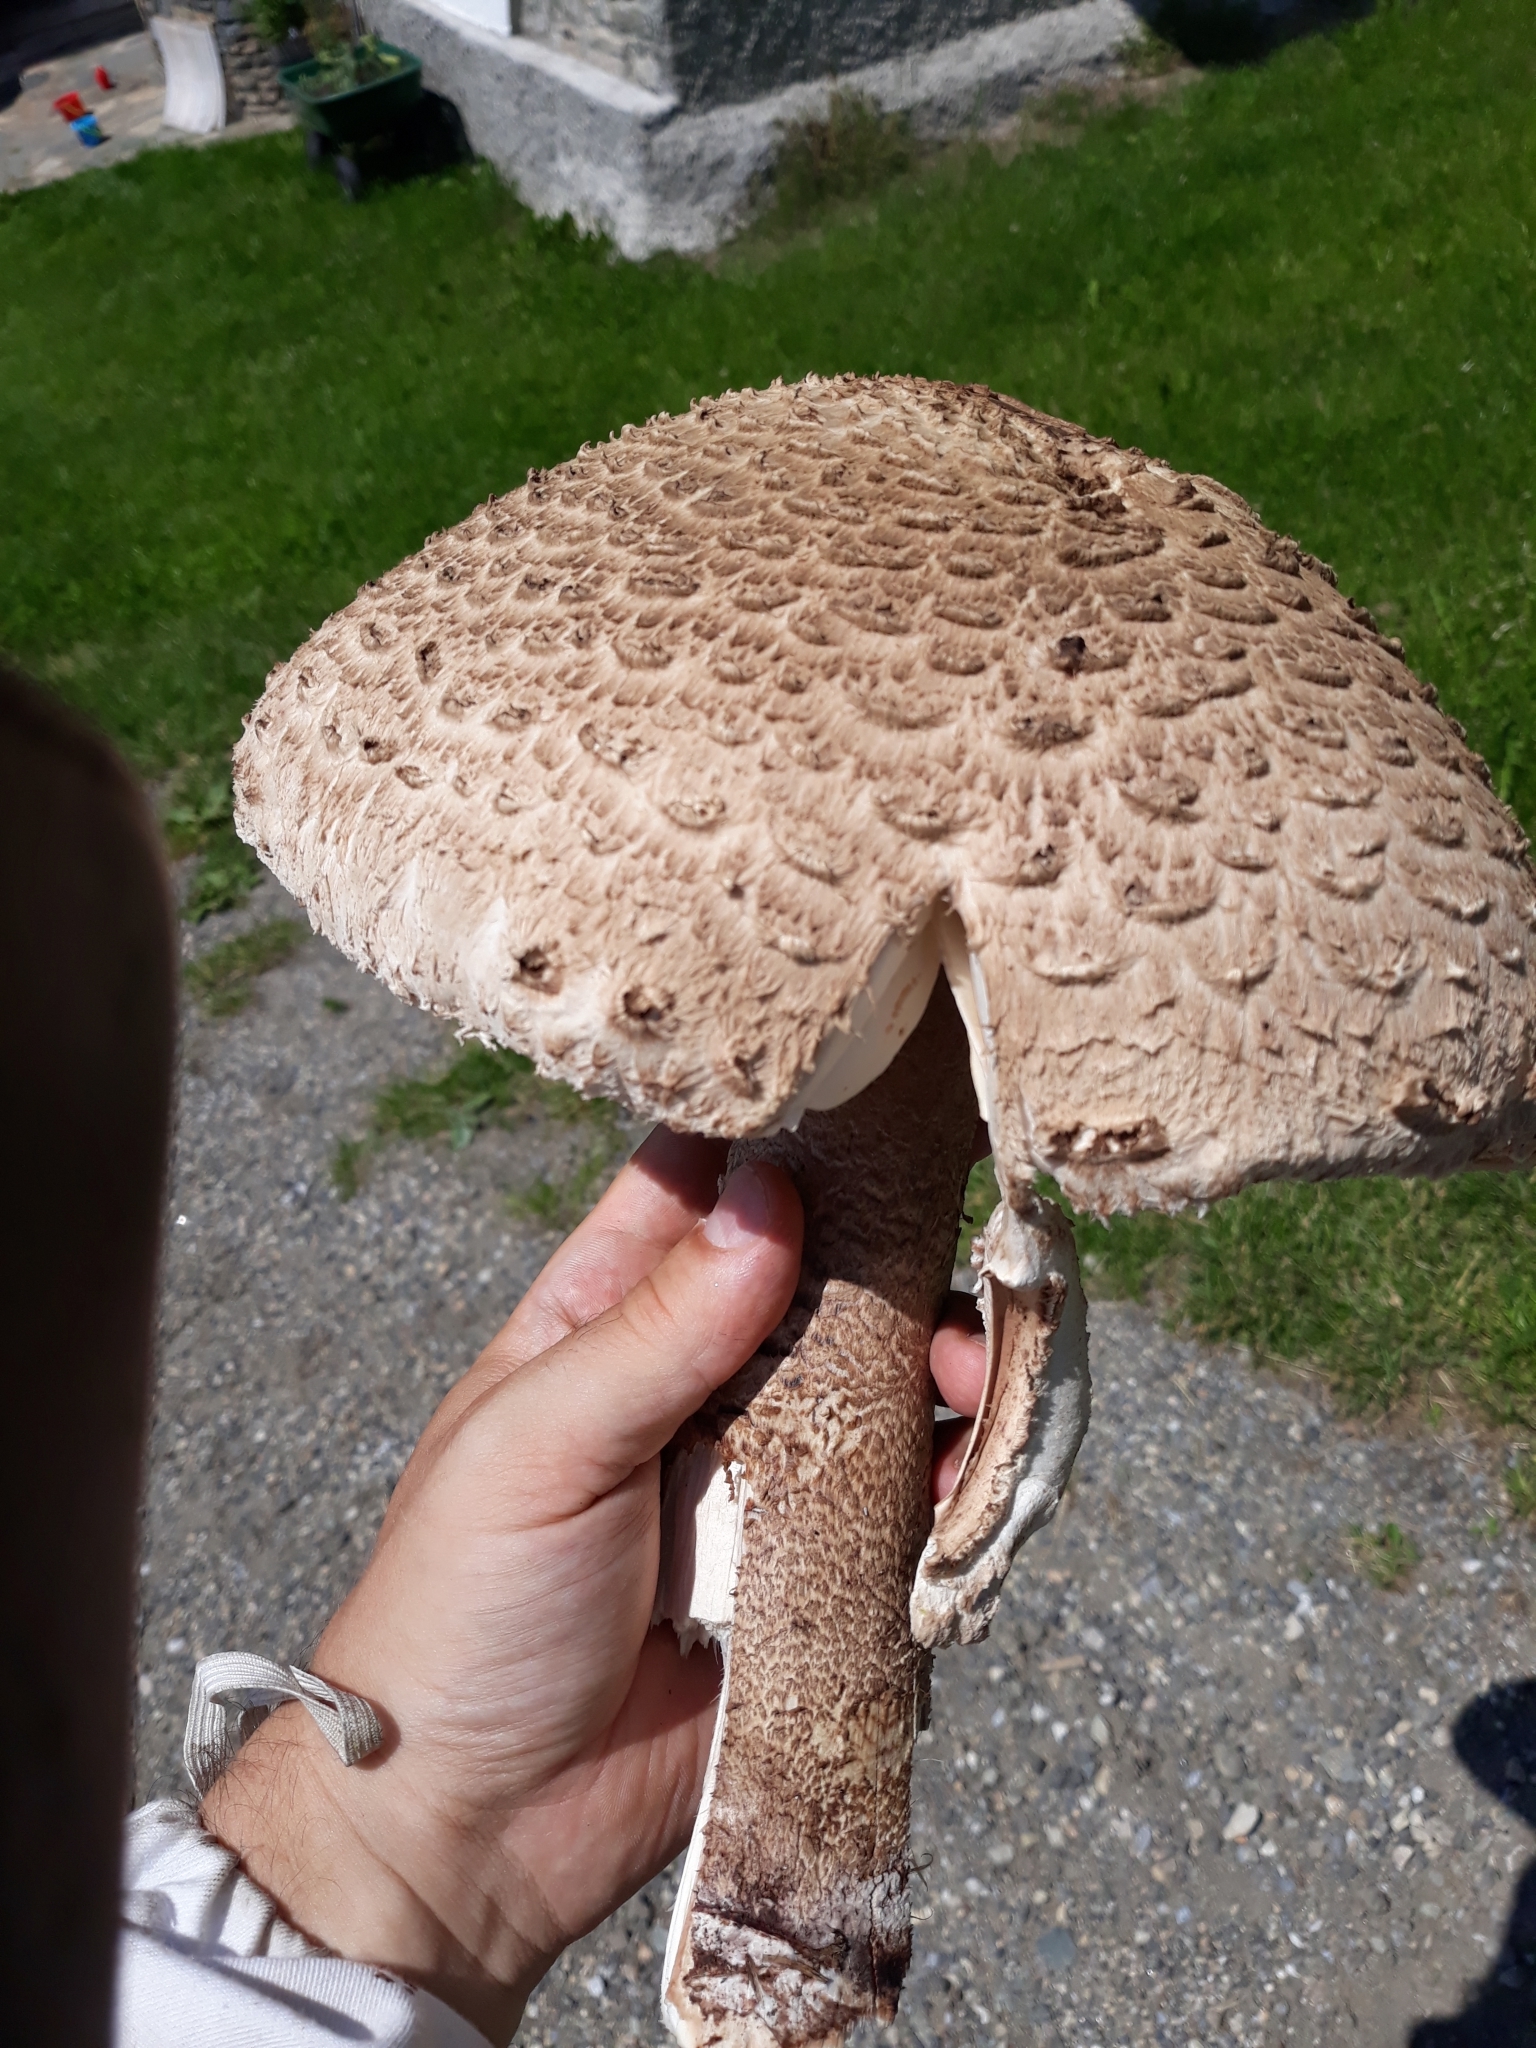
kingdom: Fungi
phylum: Basidiomycota
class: Agaricomycetes
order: Agaricales
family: Agaricaceae
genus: Macrolepiota
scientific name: Macrolepiota procera
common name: Parasol
